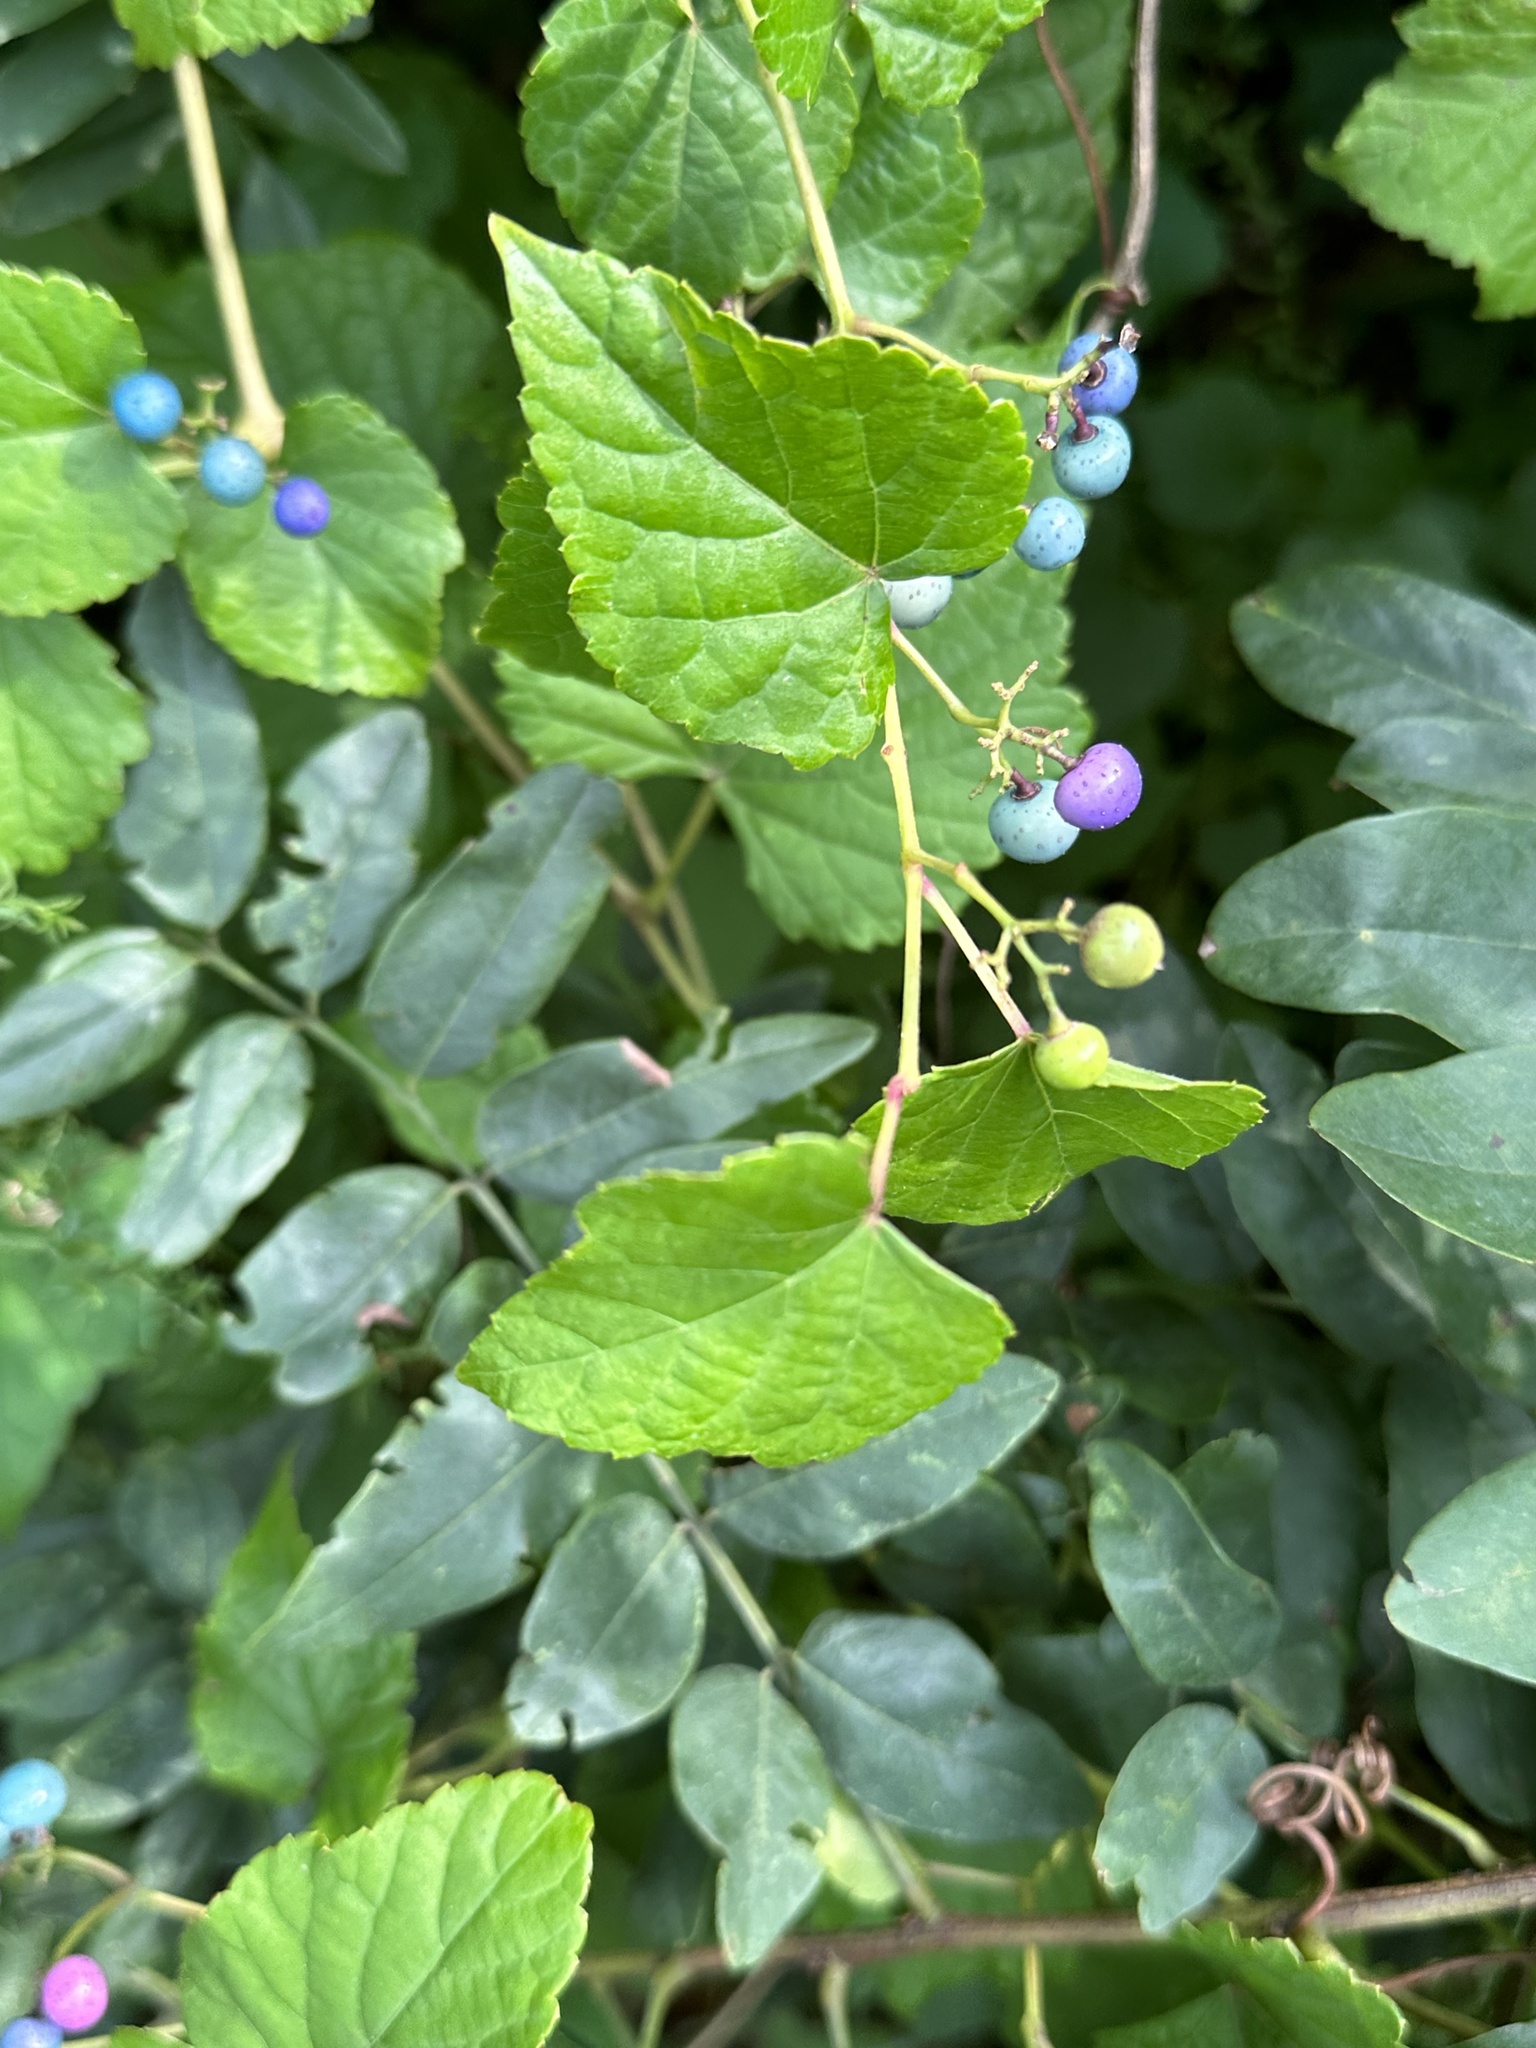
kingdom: Plantae
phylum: Tracheophyta
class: Magnoliopsida
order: Vitales
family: Vitaceae
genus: Ampelopsis
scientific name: Ampelopsis glandulosa
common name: Amur peppervine
